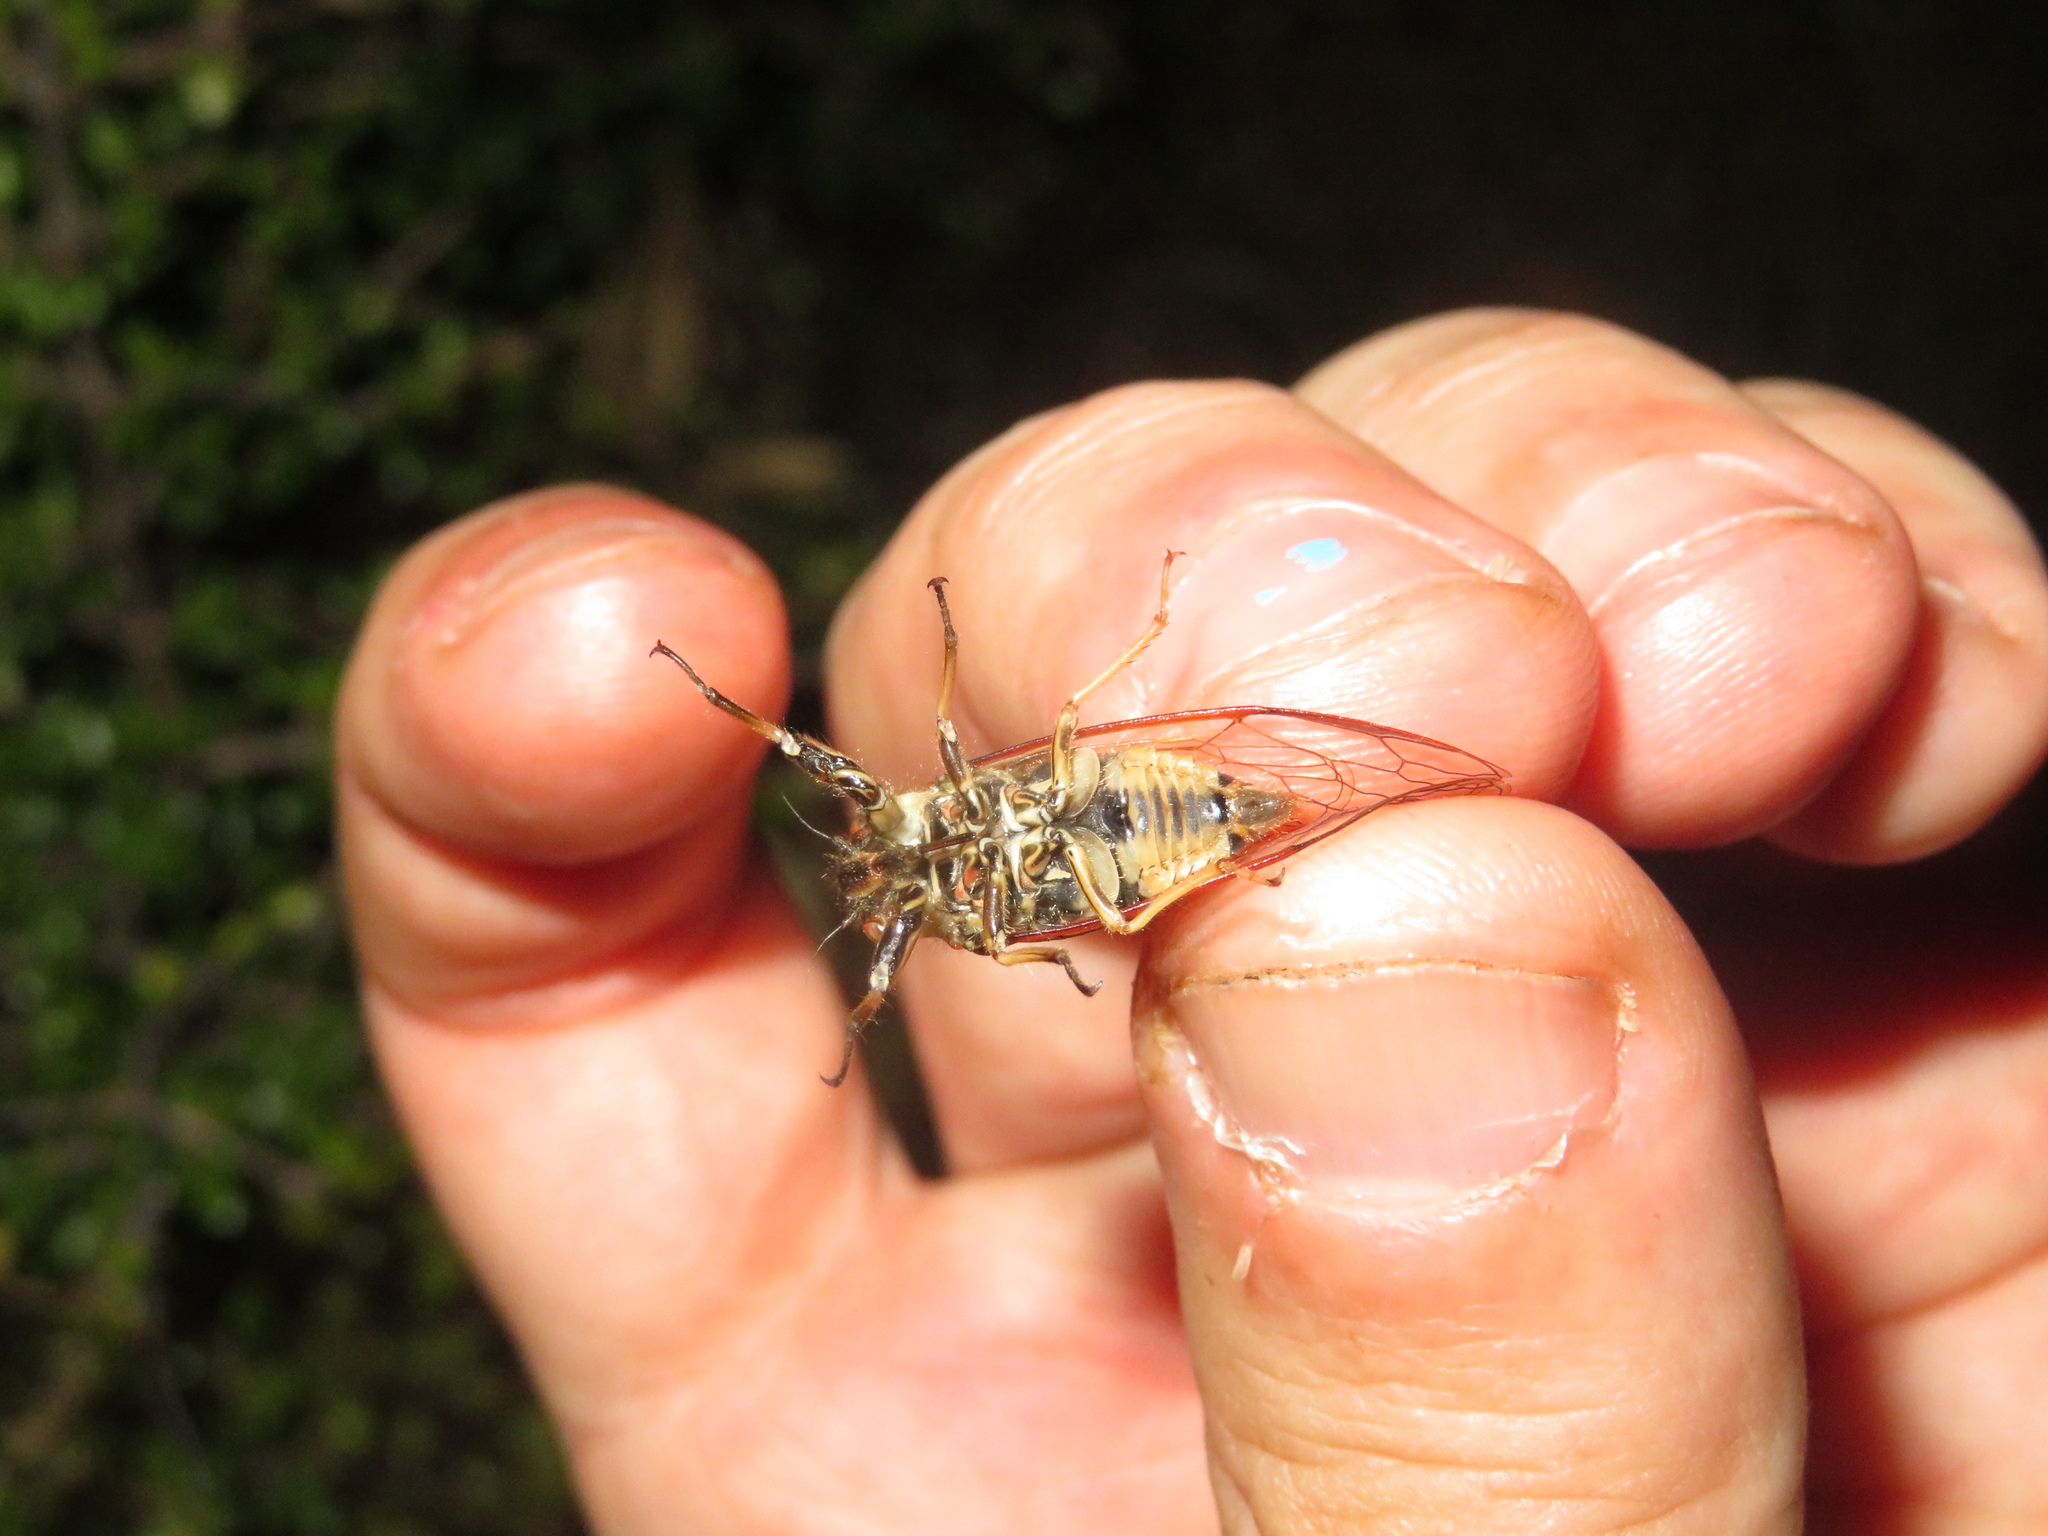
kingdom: Animalia
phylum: Arthropoda
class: Insecta
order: Hemiptera
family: Cicadidae
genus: Kikihia
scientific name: Kikihia muta
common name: Variable cicada
